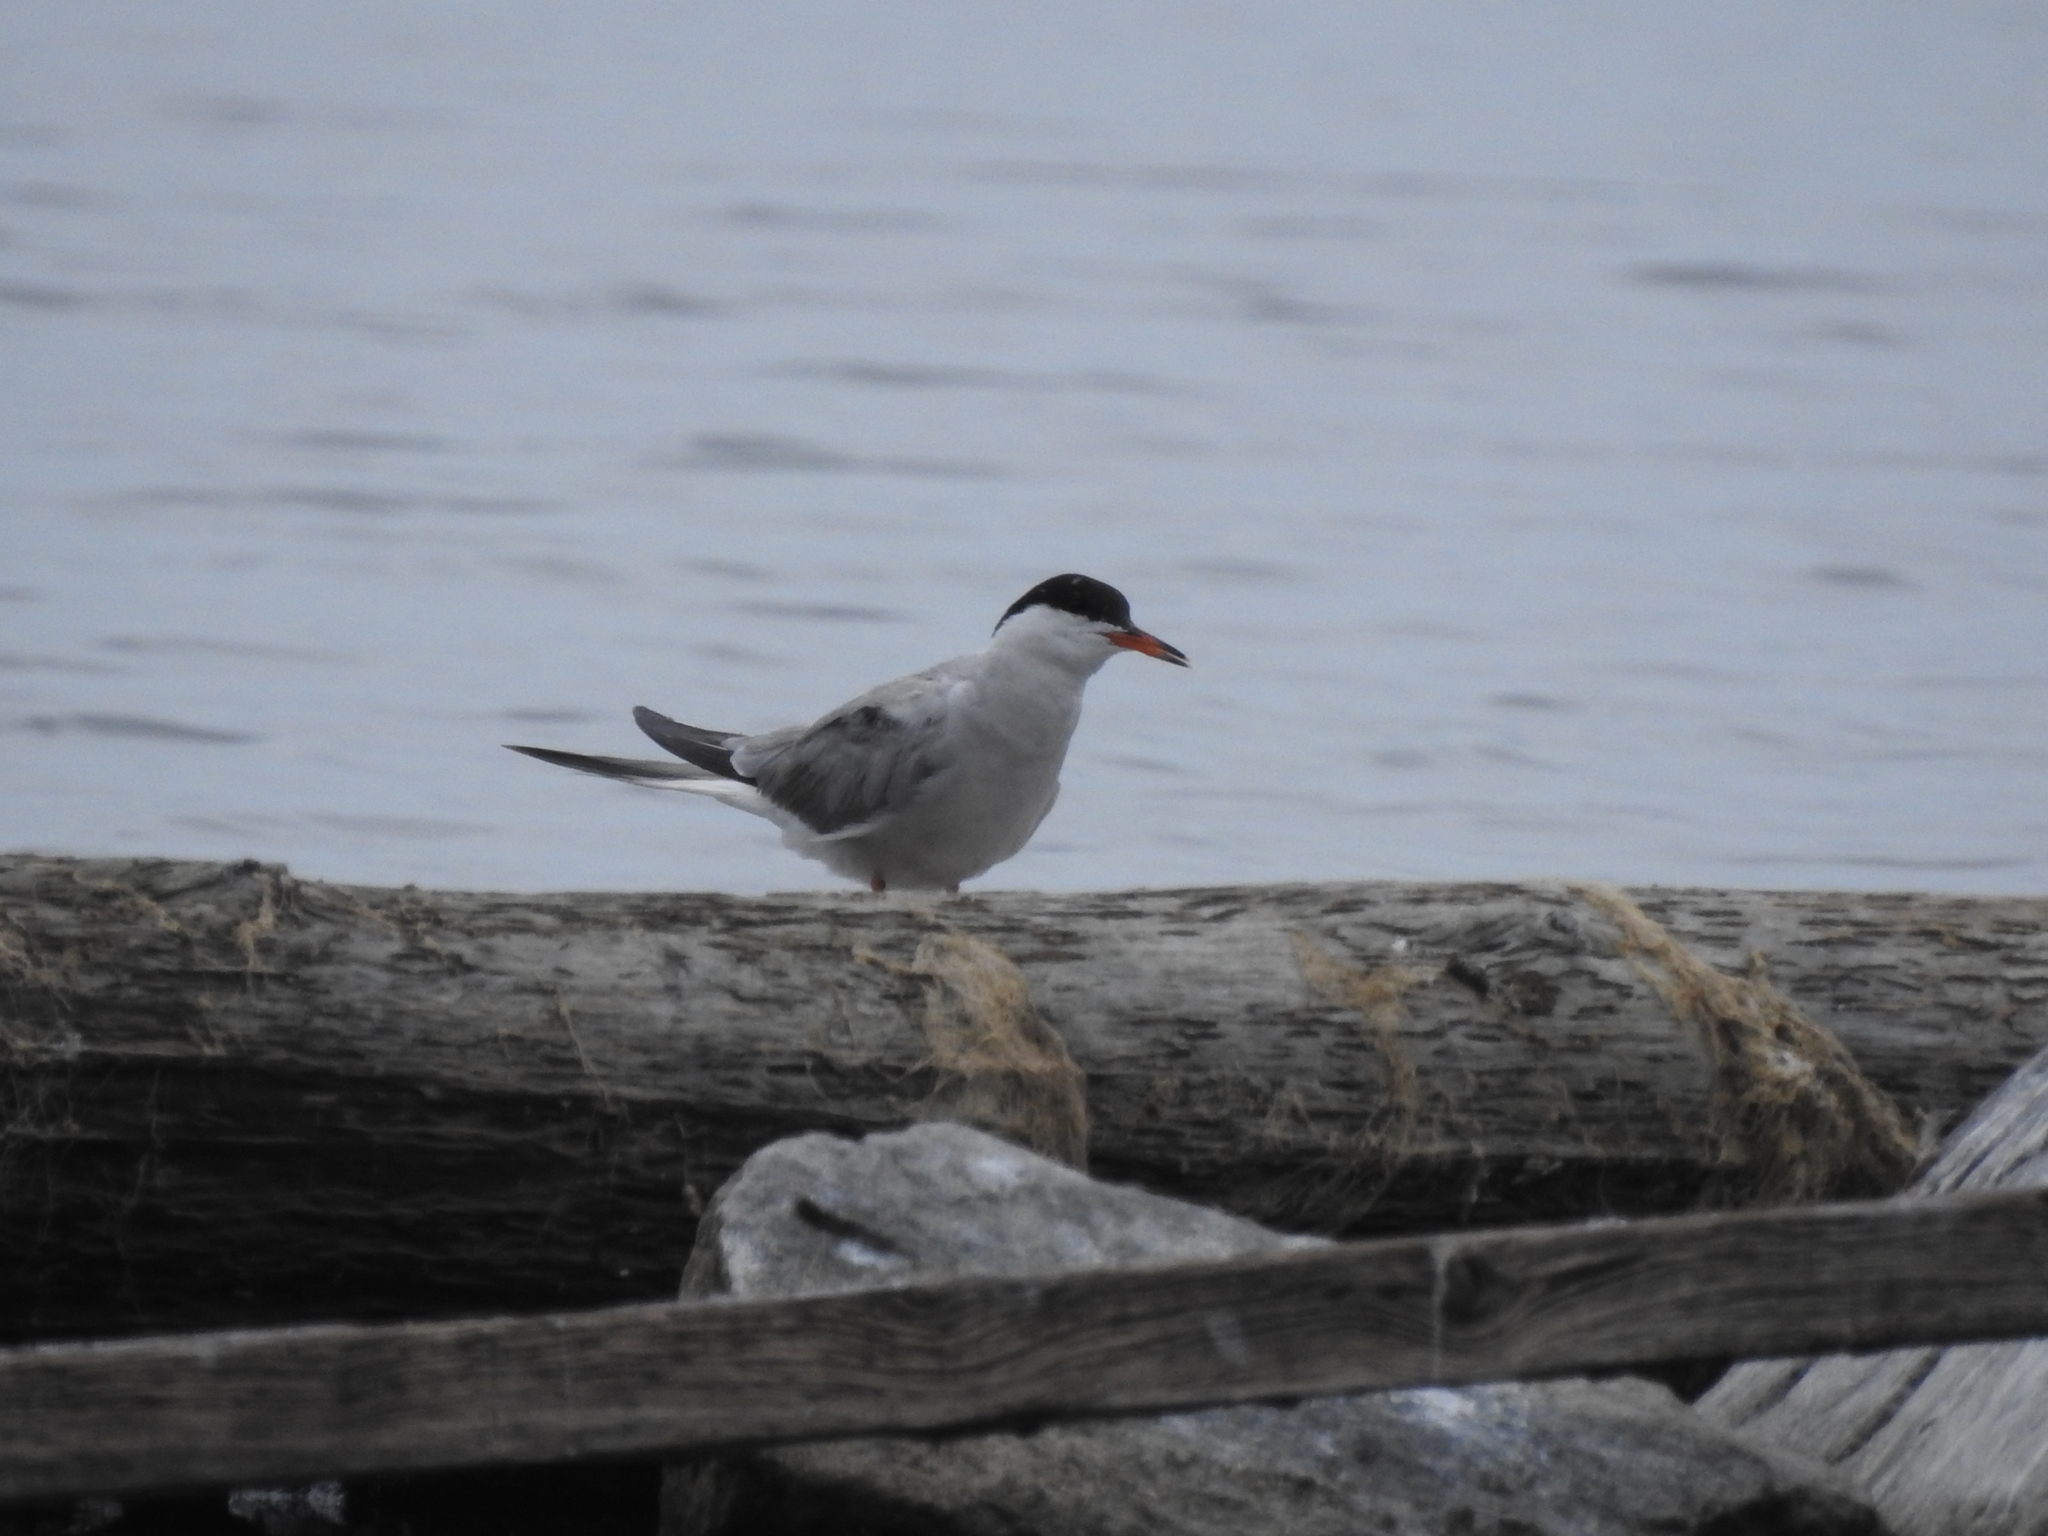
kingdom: Animalia
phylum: Chordata
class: Aves
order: Charadriiformes
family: Laridae
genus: Sterna
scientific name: Sterna hirundo
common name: Common tern
